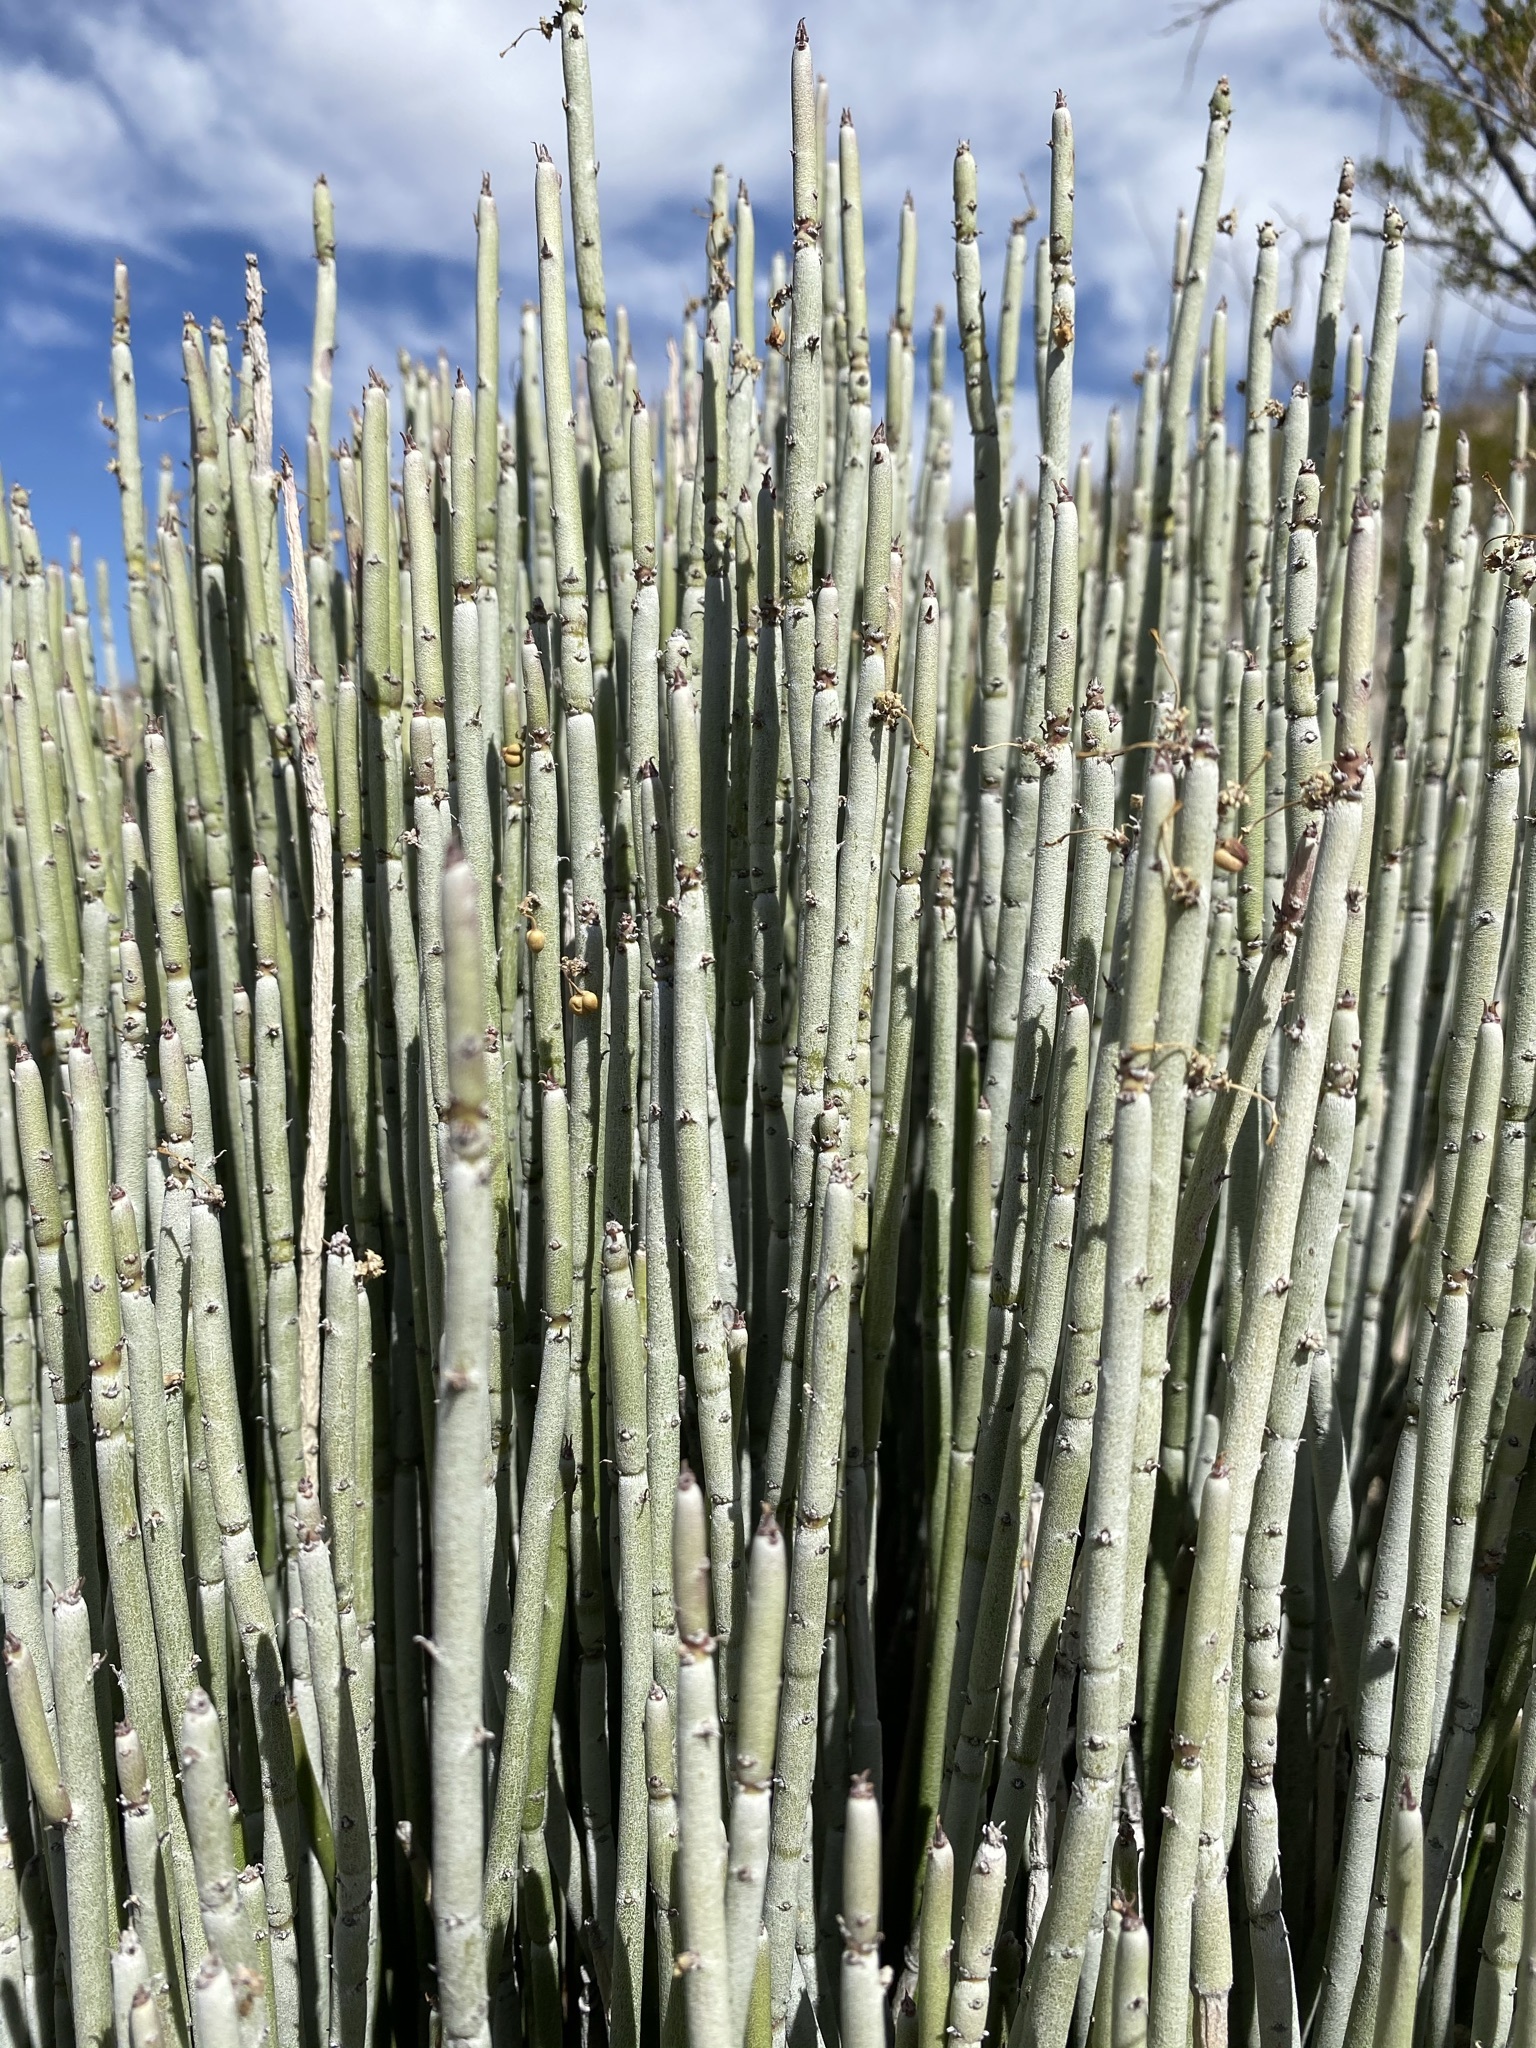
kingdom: Plantae
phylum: Tracheophyta
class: Magnoliopsida
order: Malpighiales
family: Euphorbiaceae
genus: Euphorbia
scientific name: Euphorbia antisyphilitica
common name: Candelilla
